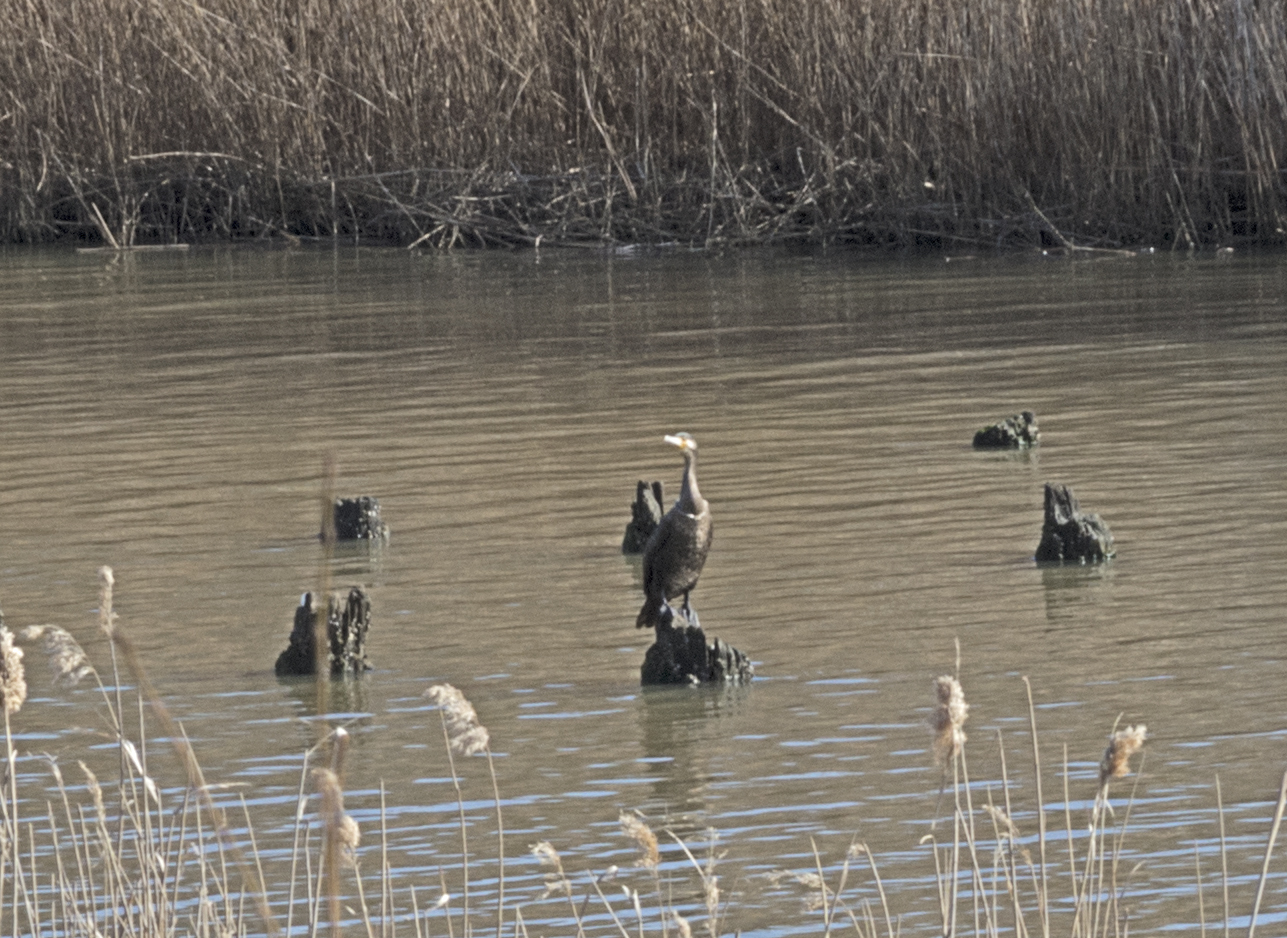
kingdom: Animalia
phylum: Chordata
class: Aves
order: Suliformes
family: Phalacrocoracidae
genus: Phalacrocorax
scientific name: Phalacrocorax carbo
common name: Great cormorant
